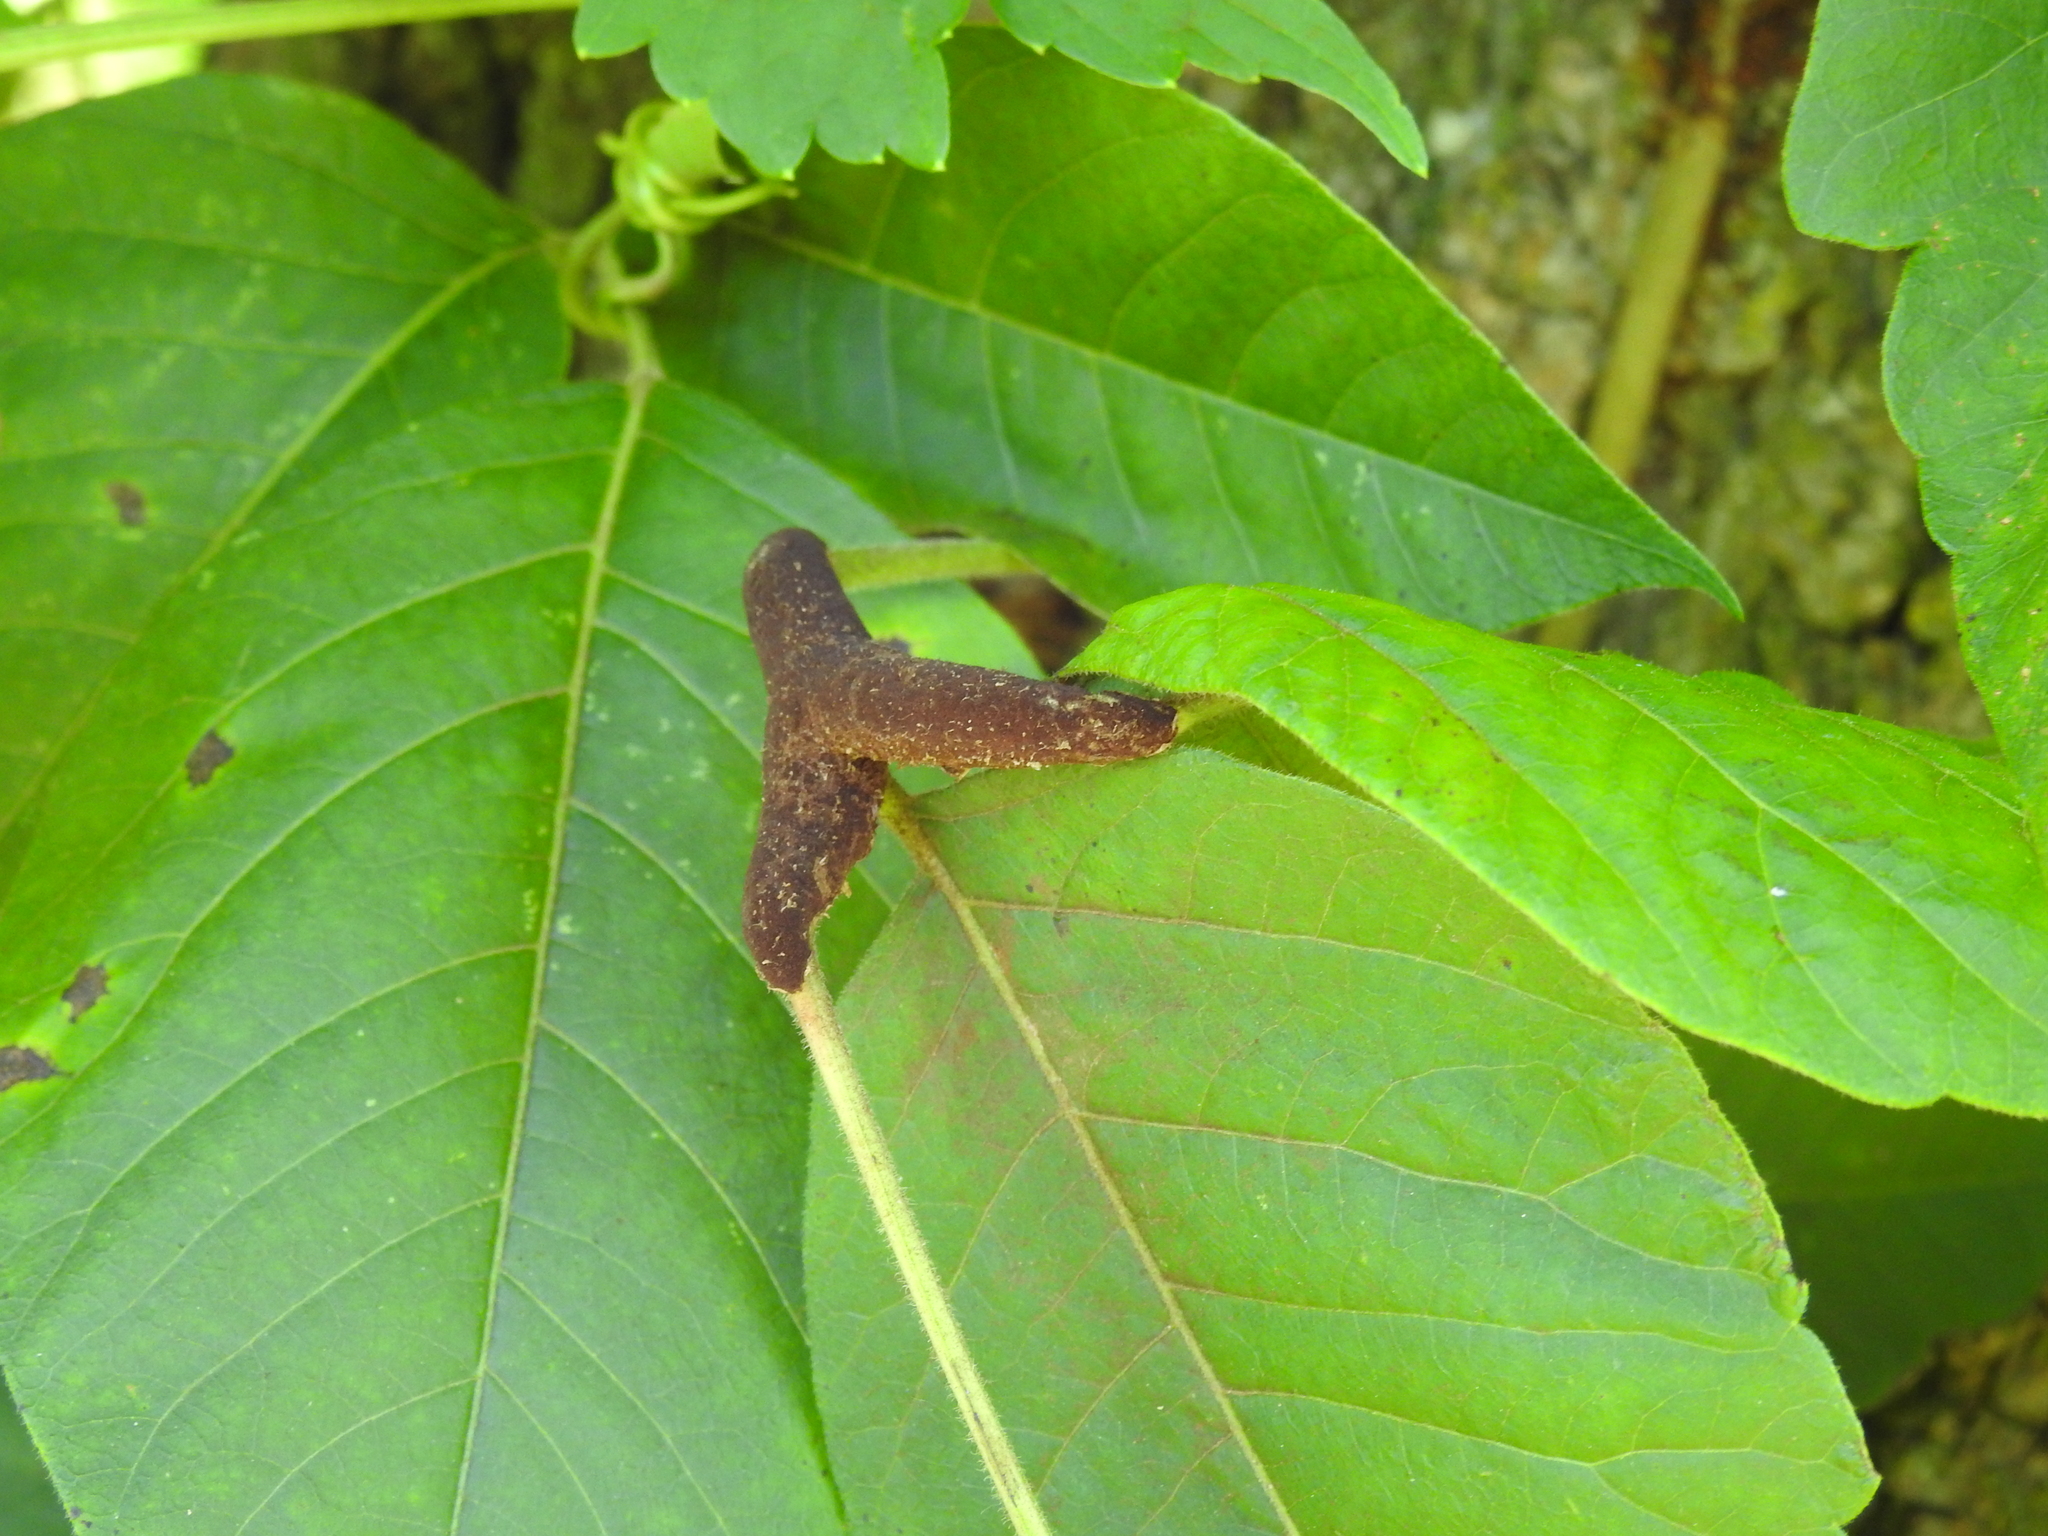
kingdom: Fungi
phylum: Basidiomycota
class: Pucciniomycetes
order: Pucciniales
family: Pileolariaceae
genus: Pileolaria
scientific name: Pileolaria brevipes
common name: Poison ivy rust
